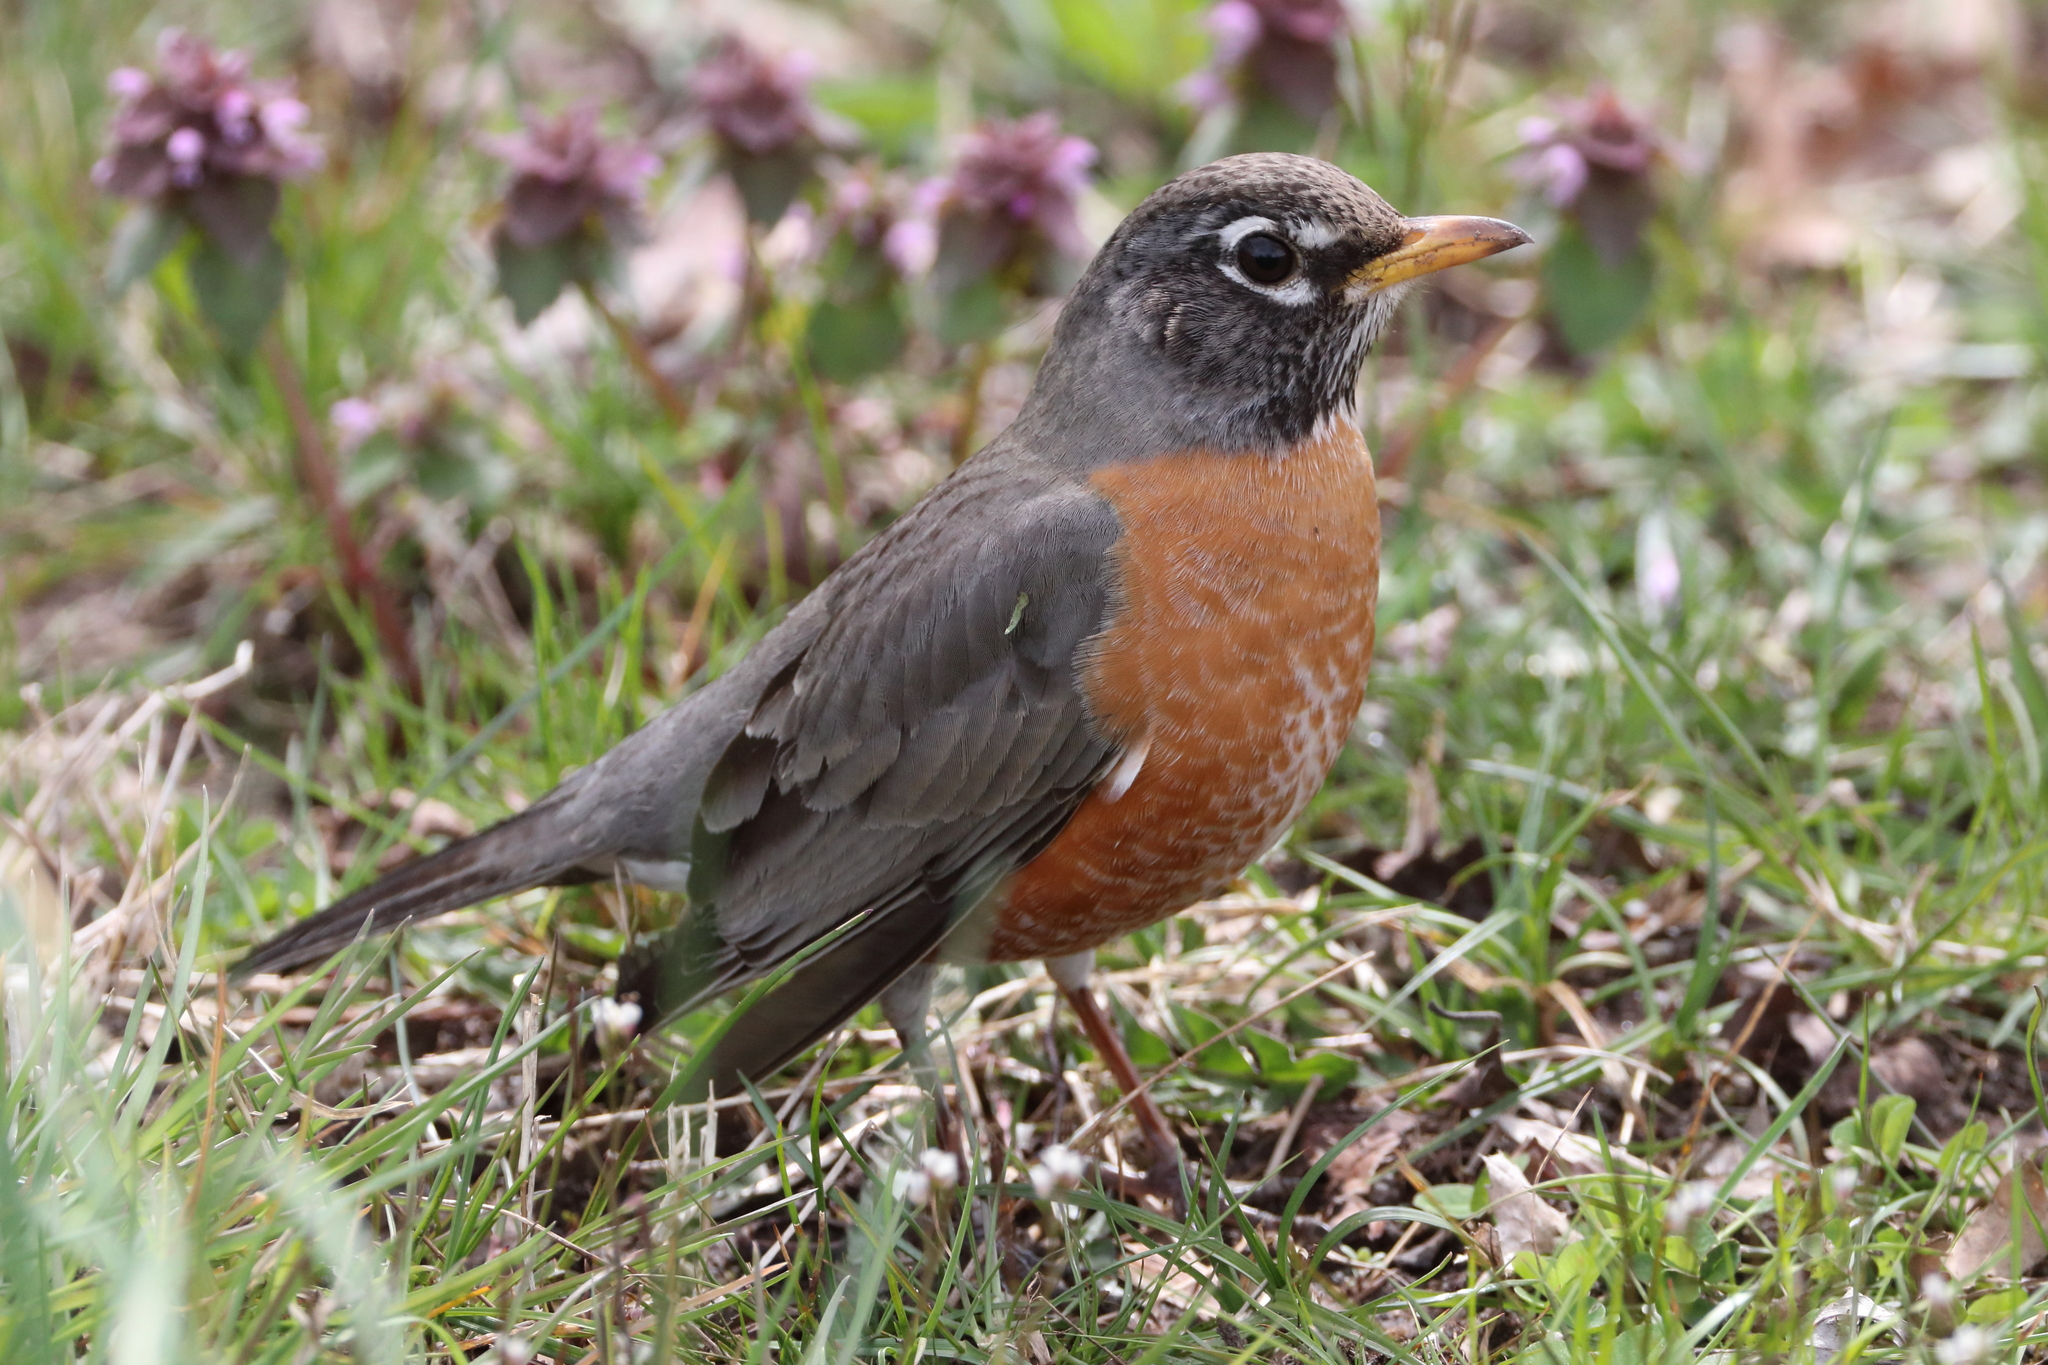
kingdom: Animalia
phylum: Chordata
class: Aves
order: Passeriformes
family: Turdidae
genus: Turdus
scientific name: Turdus migratorius
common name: American robin
